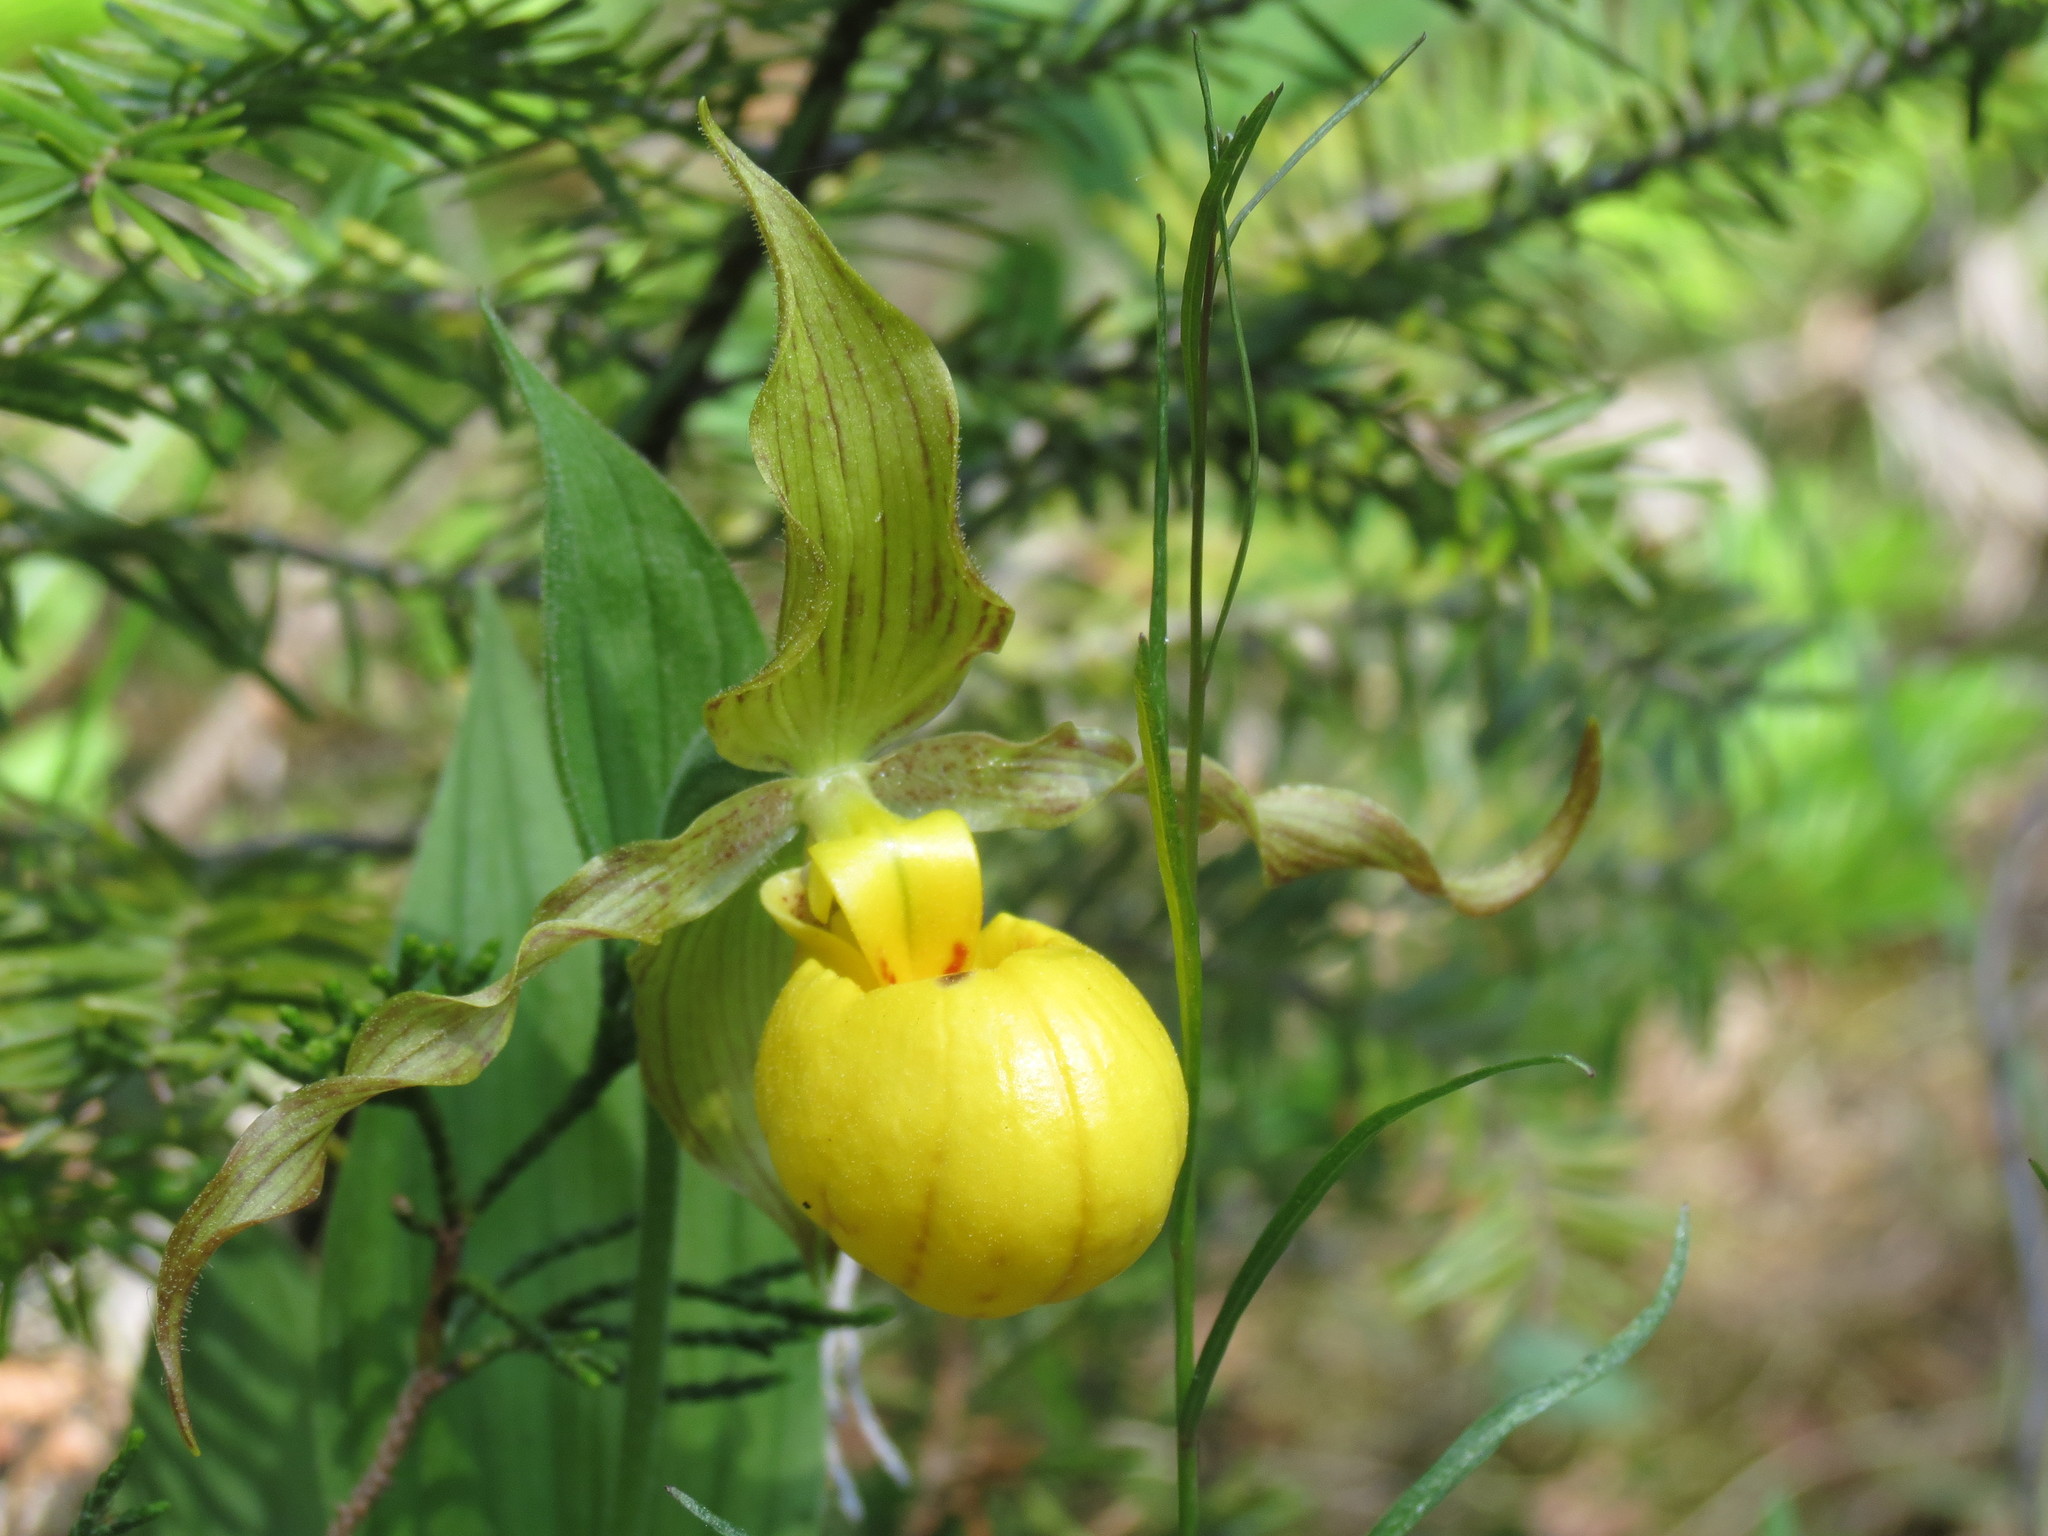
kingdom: Plantae
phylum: Tracheophyta
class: Liliopsida
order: Asparagales
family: Orchidaceae
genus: Cypripedium
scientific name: Cypripedium parviflorum
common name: American yellow lady's-slipper
